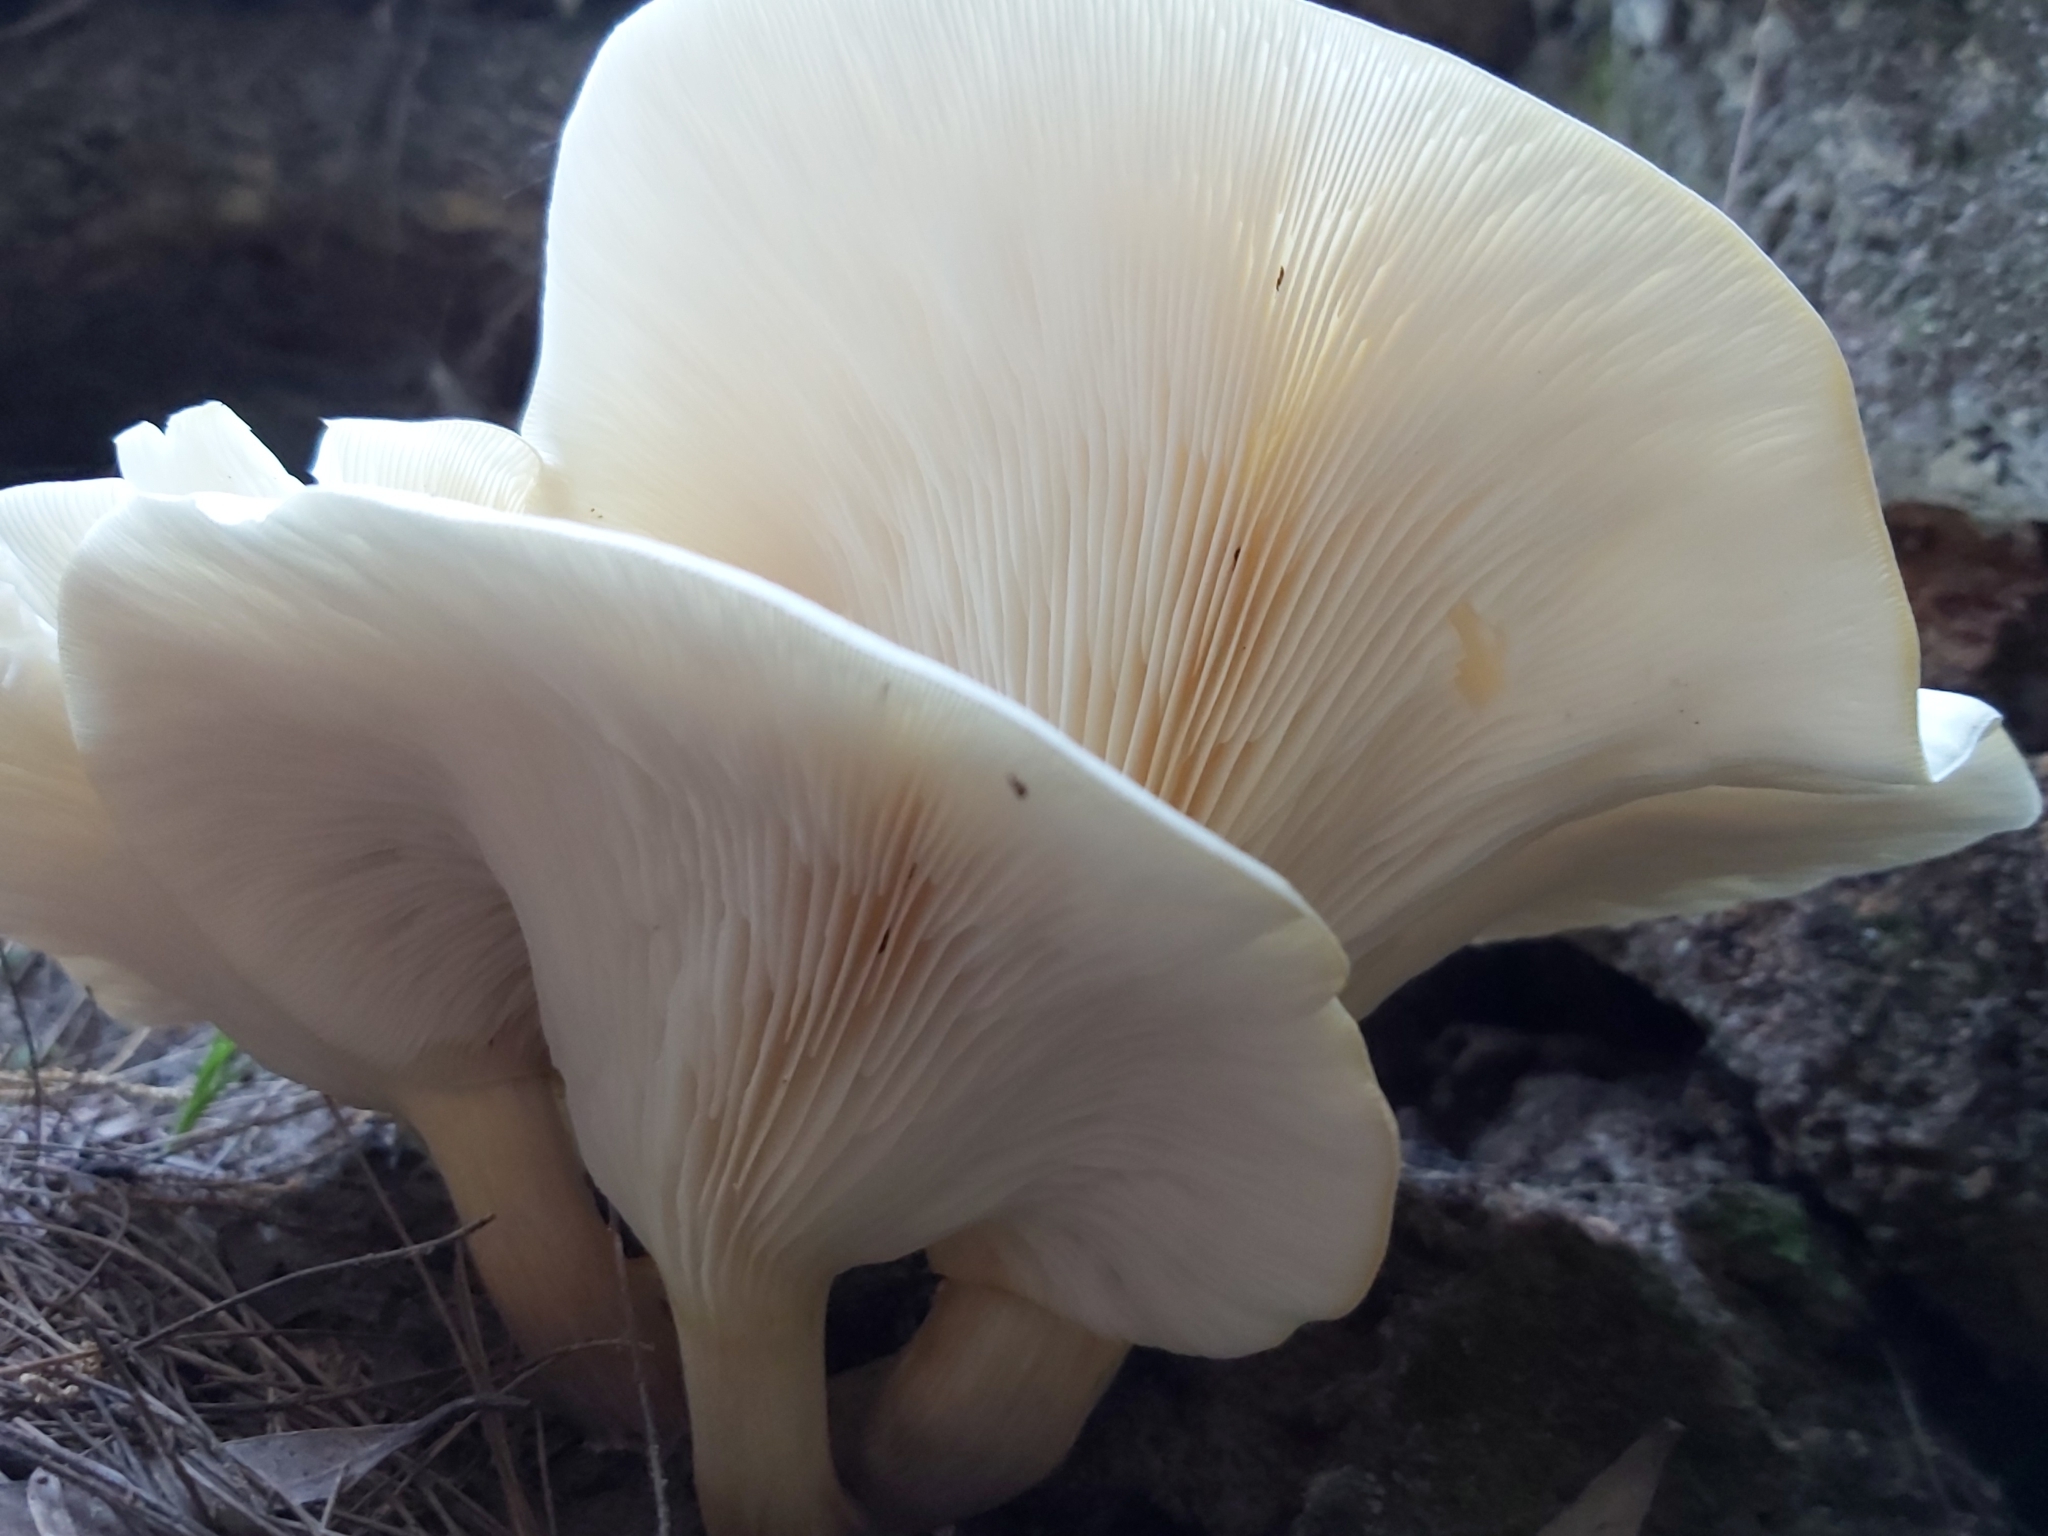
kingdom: Fungi
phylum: Basidiomycota
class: Agaricomycetes
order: Agaricales
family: Omphalotaceae
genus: Omphalotus
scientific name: Omphalotus nidiformis
